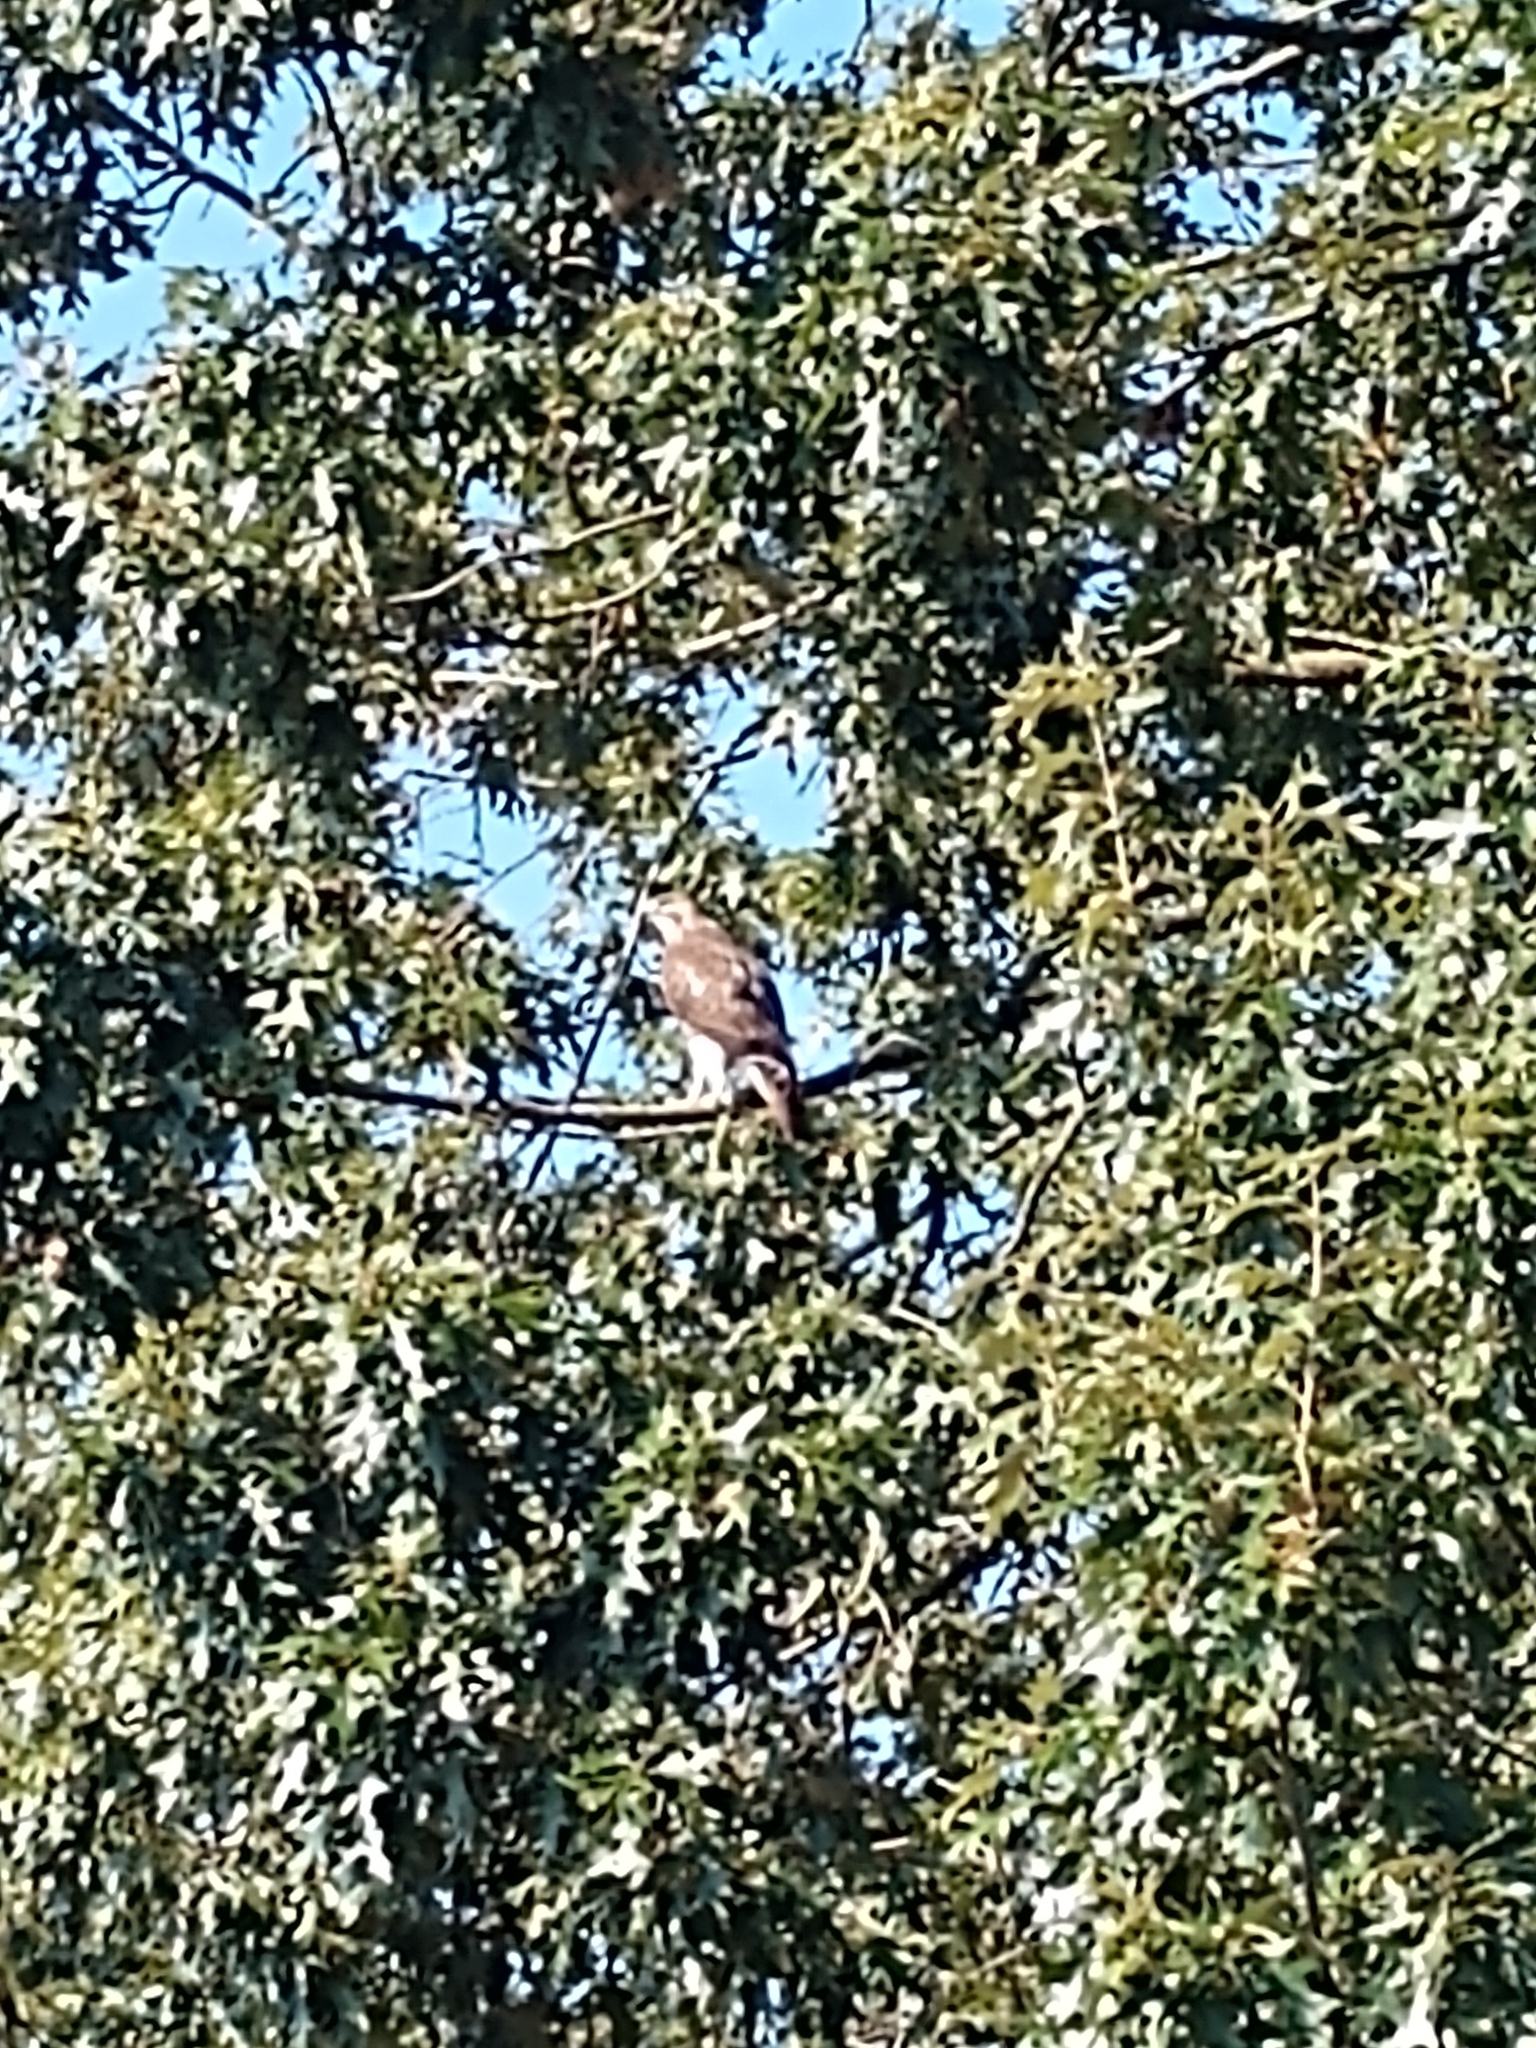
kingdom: Animalia
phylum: Chordata
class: Aves
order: Accipitriformes
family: Accipitridae
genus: Buteo
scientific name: Buteo jamaicensis
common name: Red-tailed hawk
